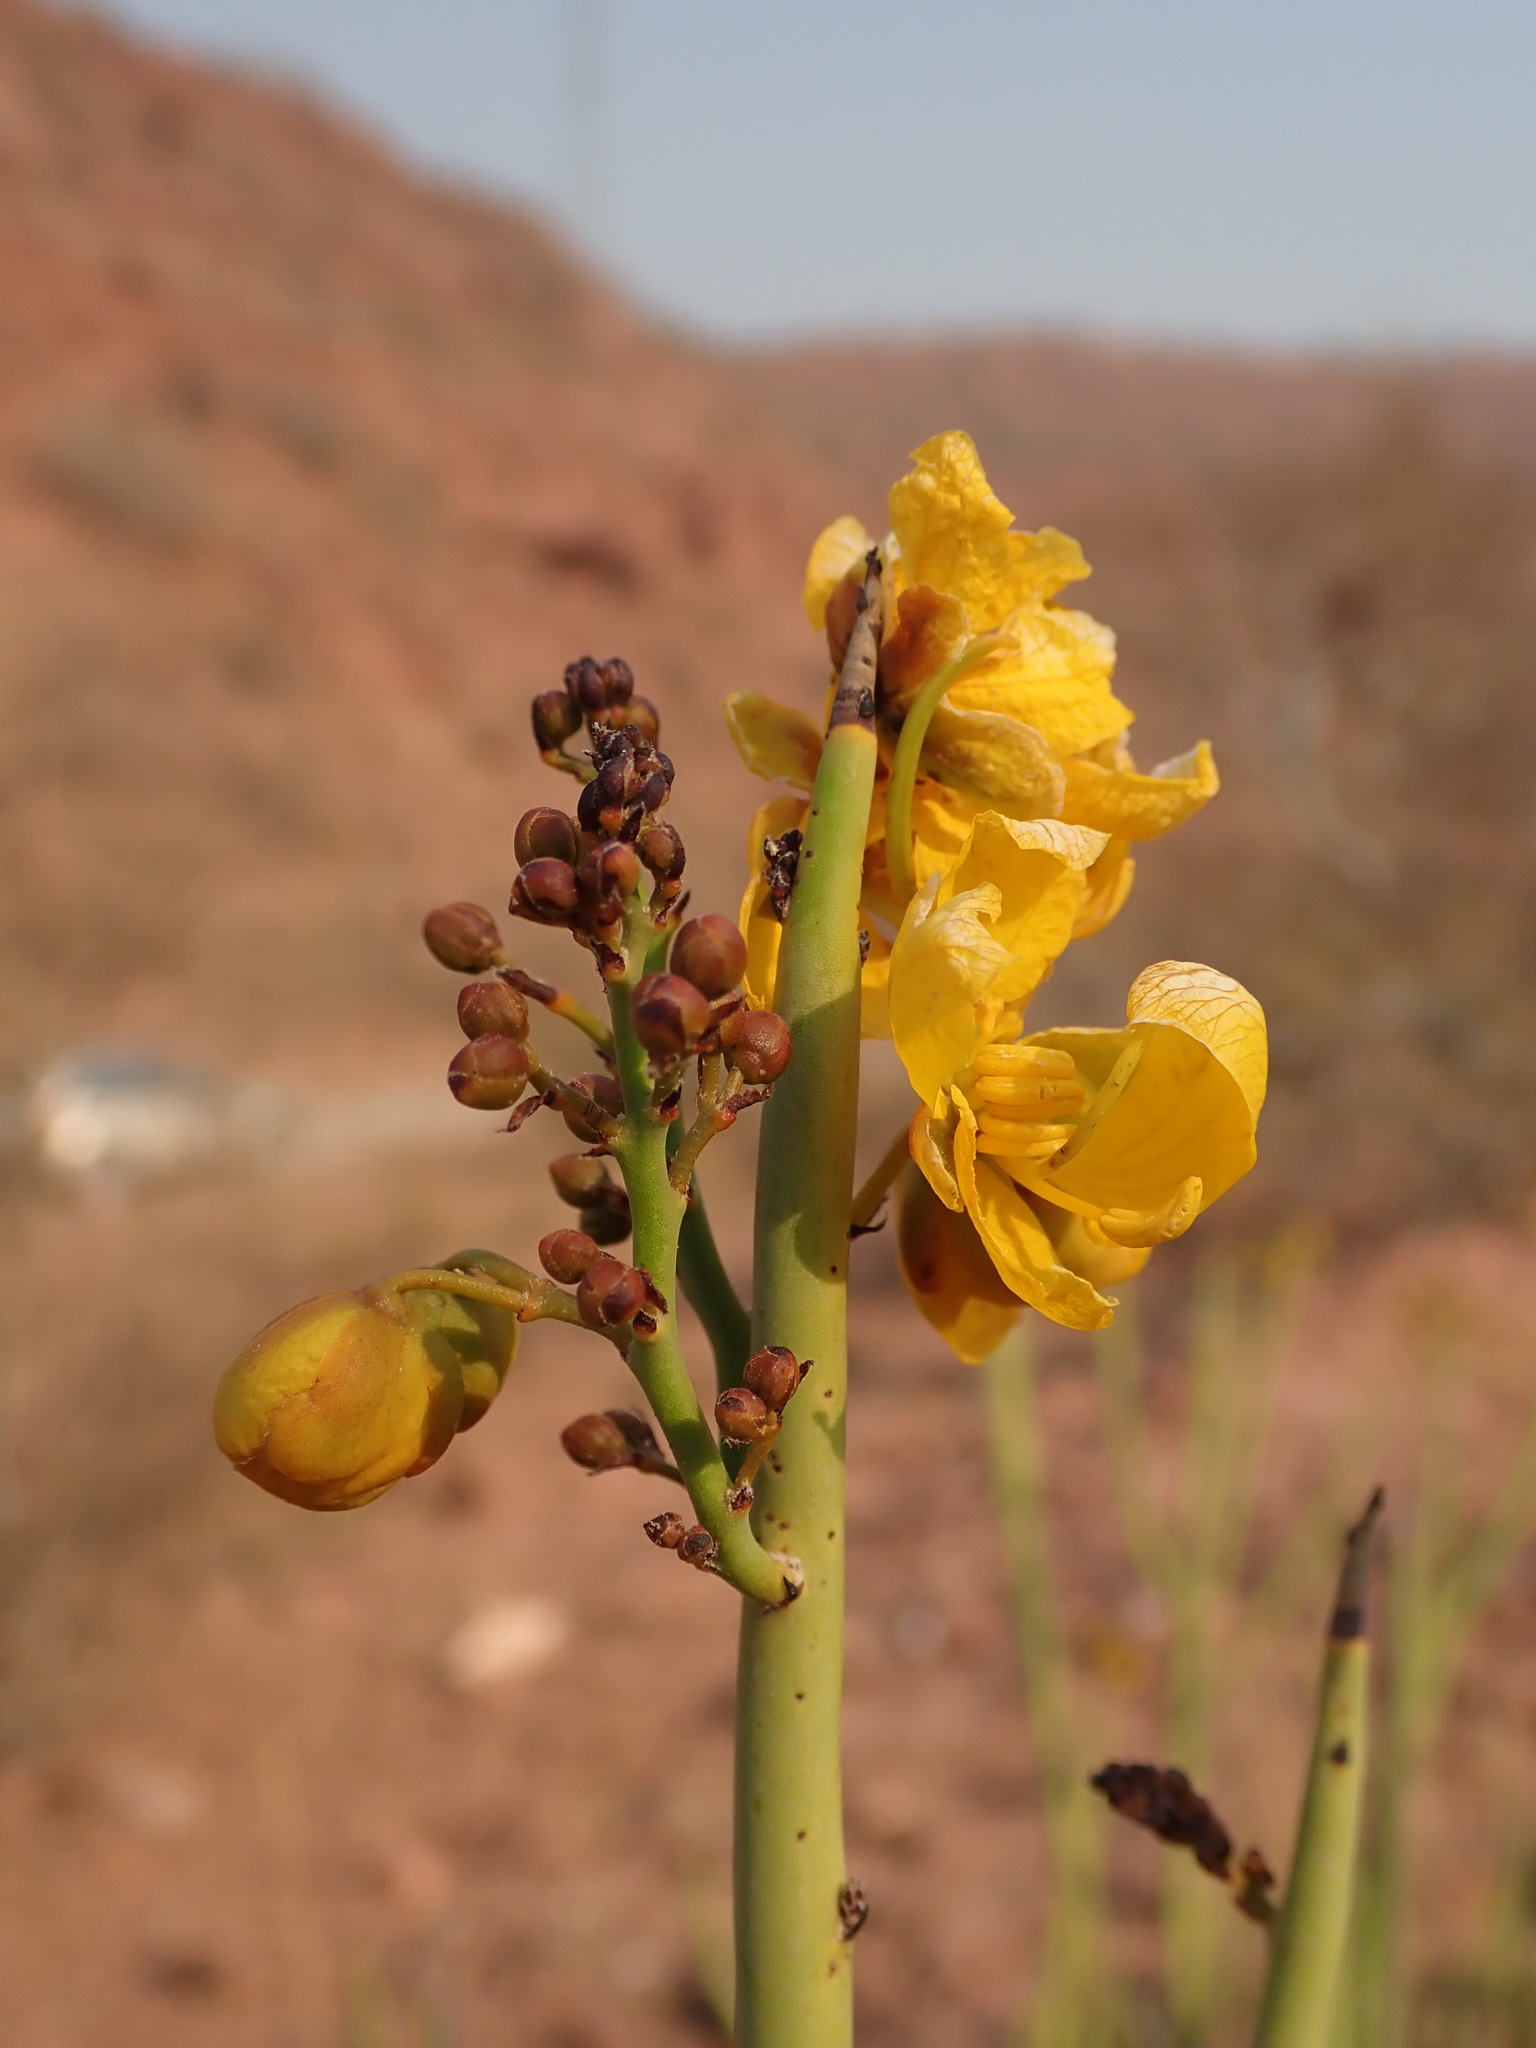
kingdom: Plantae
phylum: Tracheophyta
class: Magnoliopsida
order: Fabales
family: Fabaceae
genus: Senna
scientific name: Senna crassiramea
